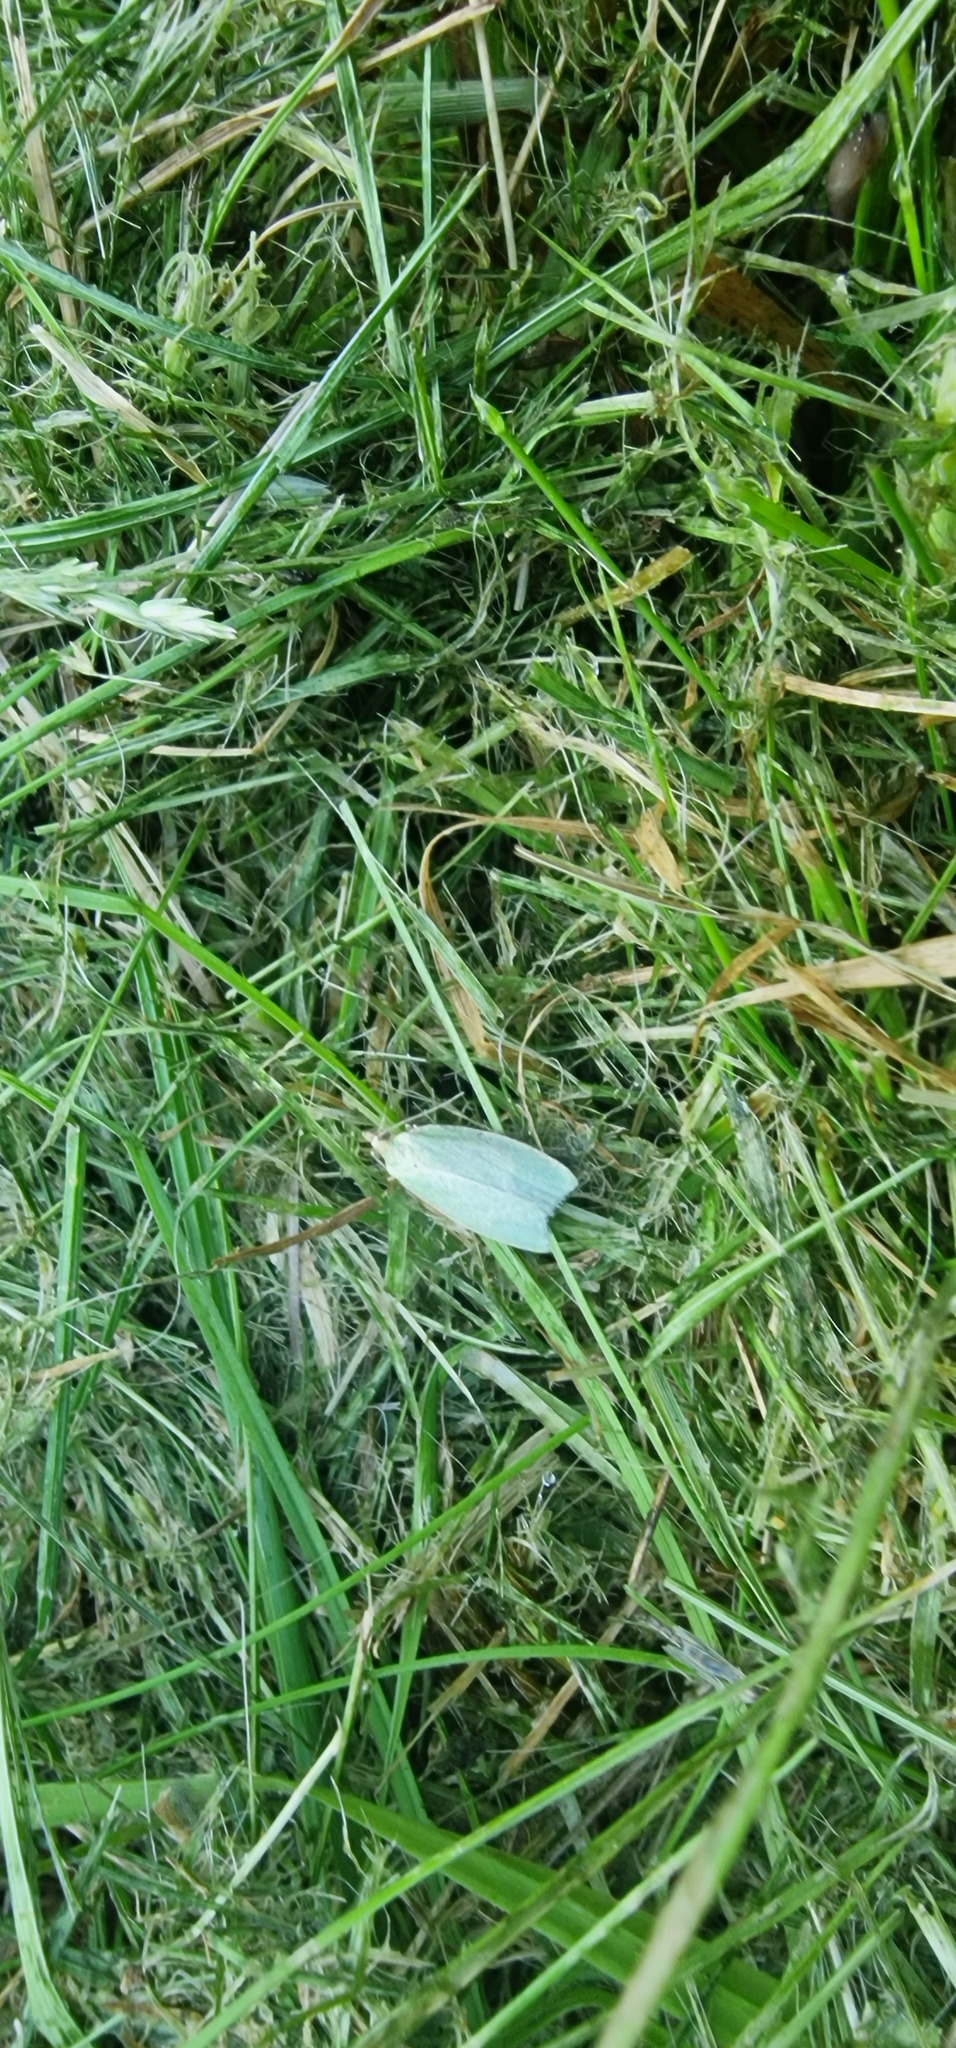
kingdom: Animalia
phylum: Arthropoda
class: Insecta
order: Lepidoptera
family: Tortricidae
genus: Tortrix
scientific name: Tortrix viridana
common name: Green oak tortrix
